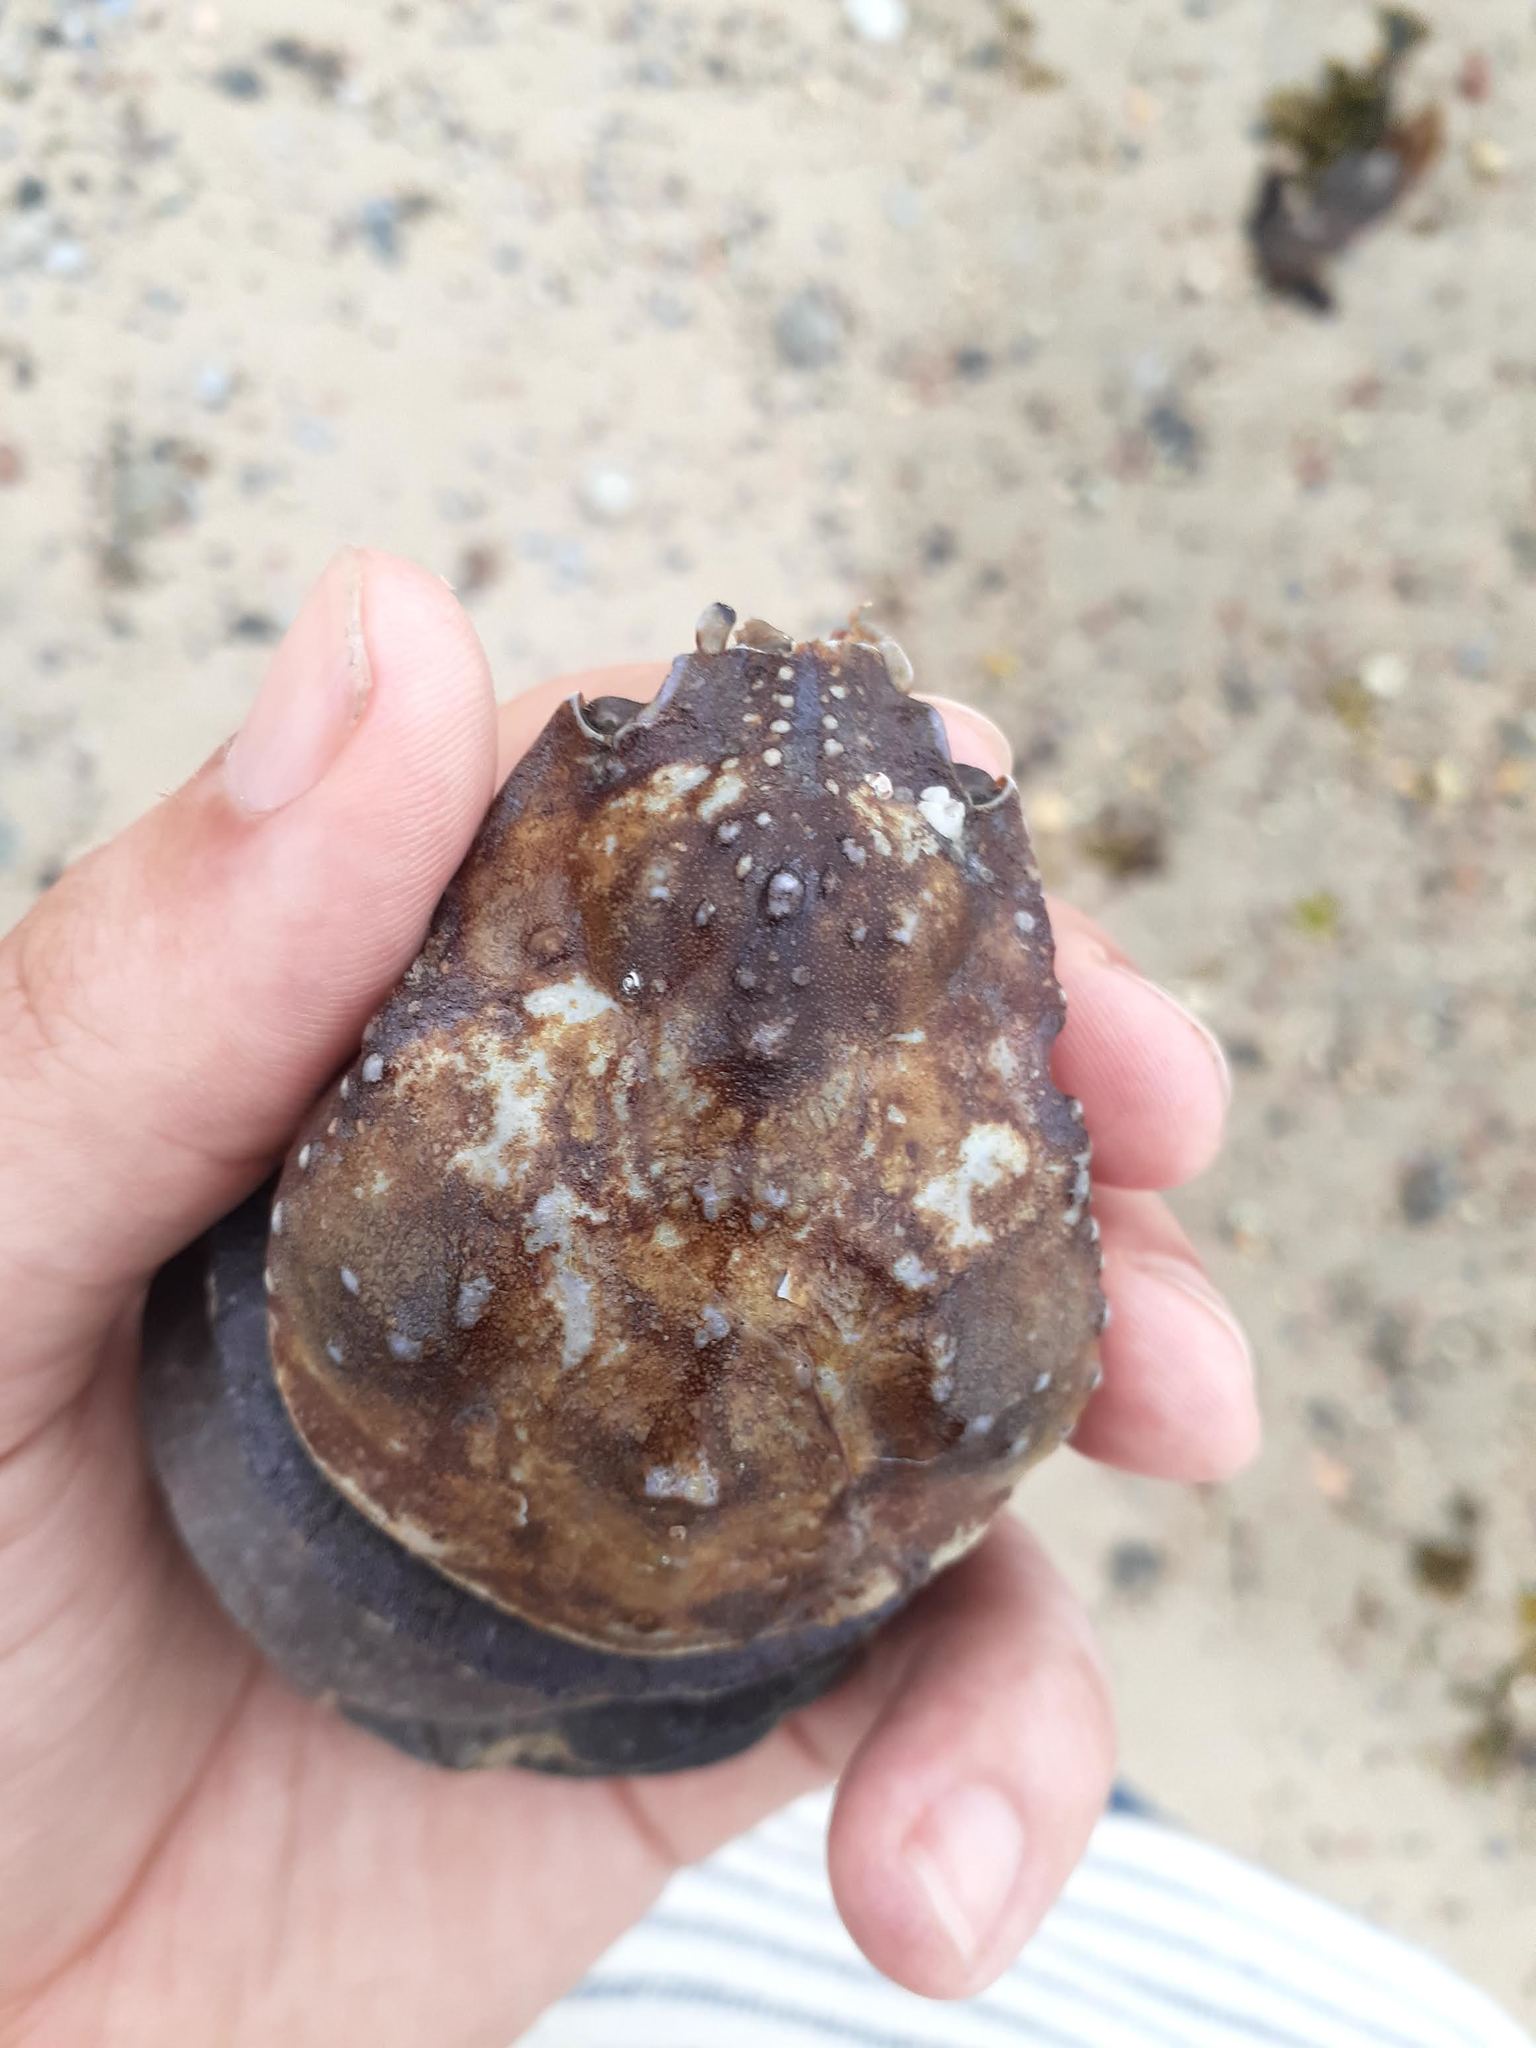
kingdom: Animalia
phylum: Arthropoda
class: Malacostraca
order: Decapoda
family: Oregoniidae
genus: Hyas
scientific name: Hyas araneus
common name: Great spider crab
